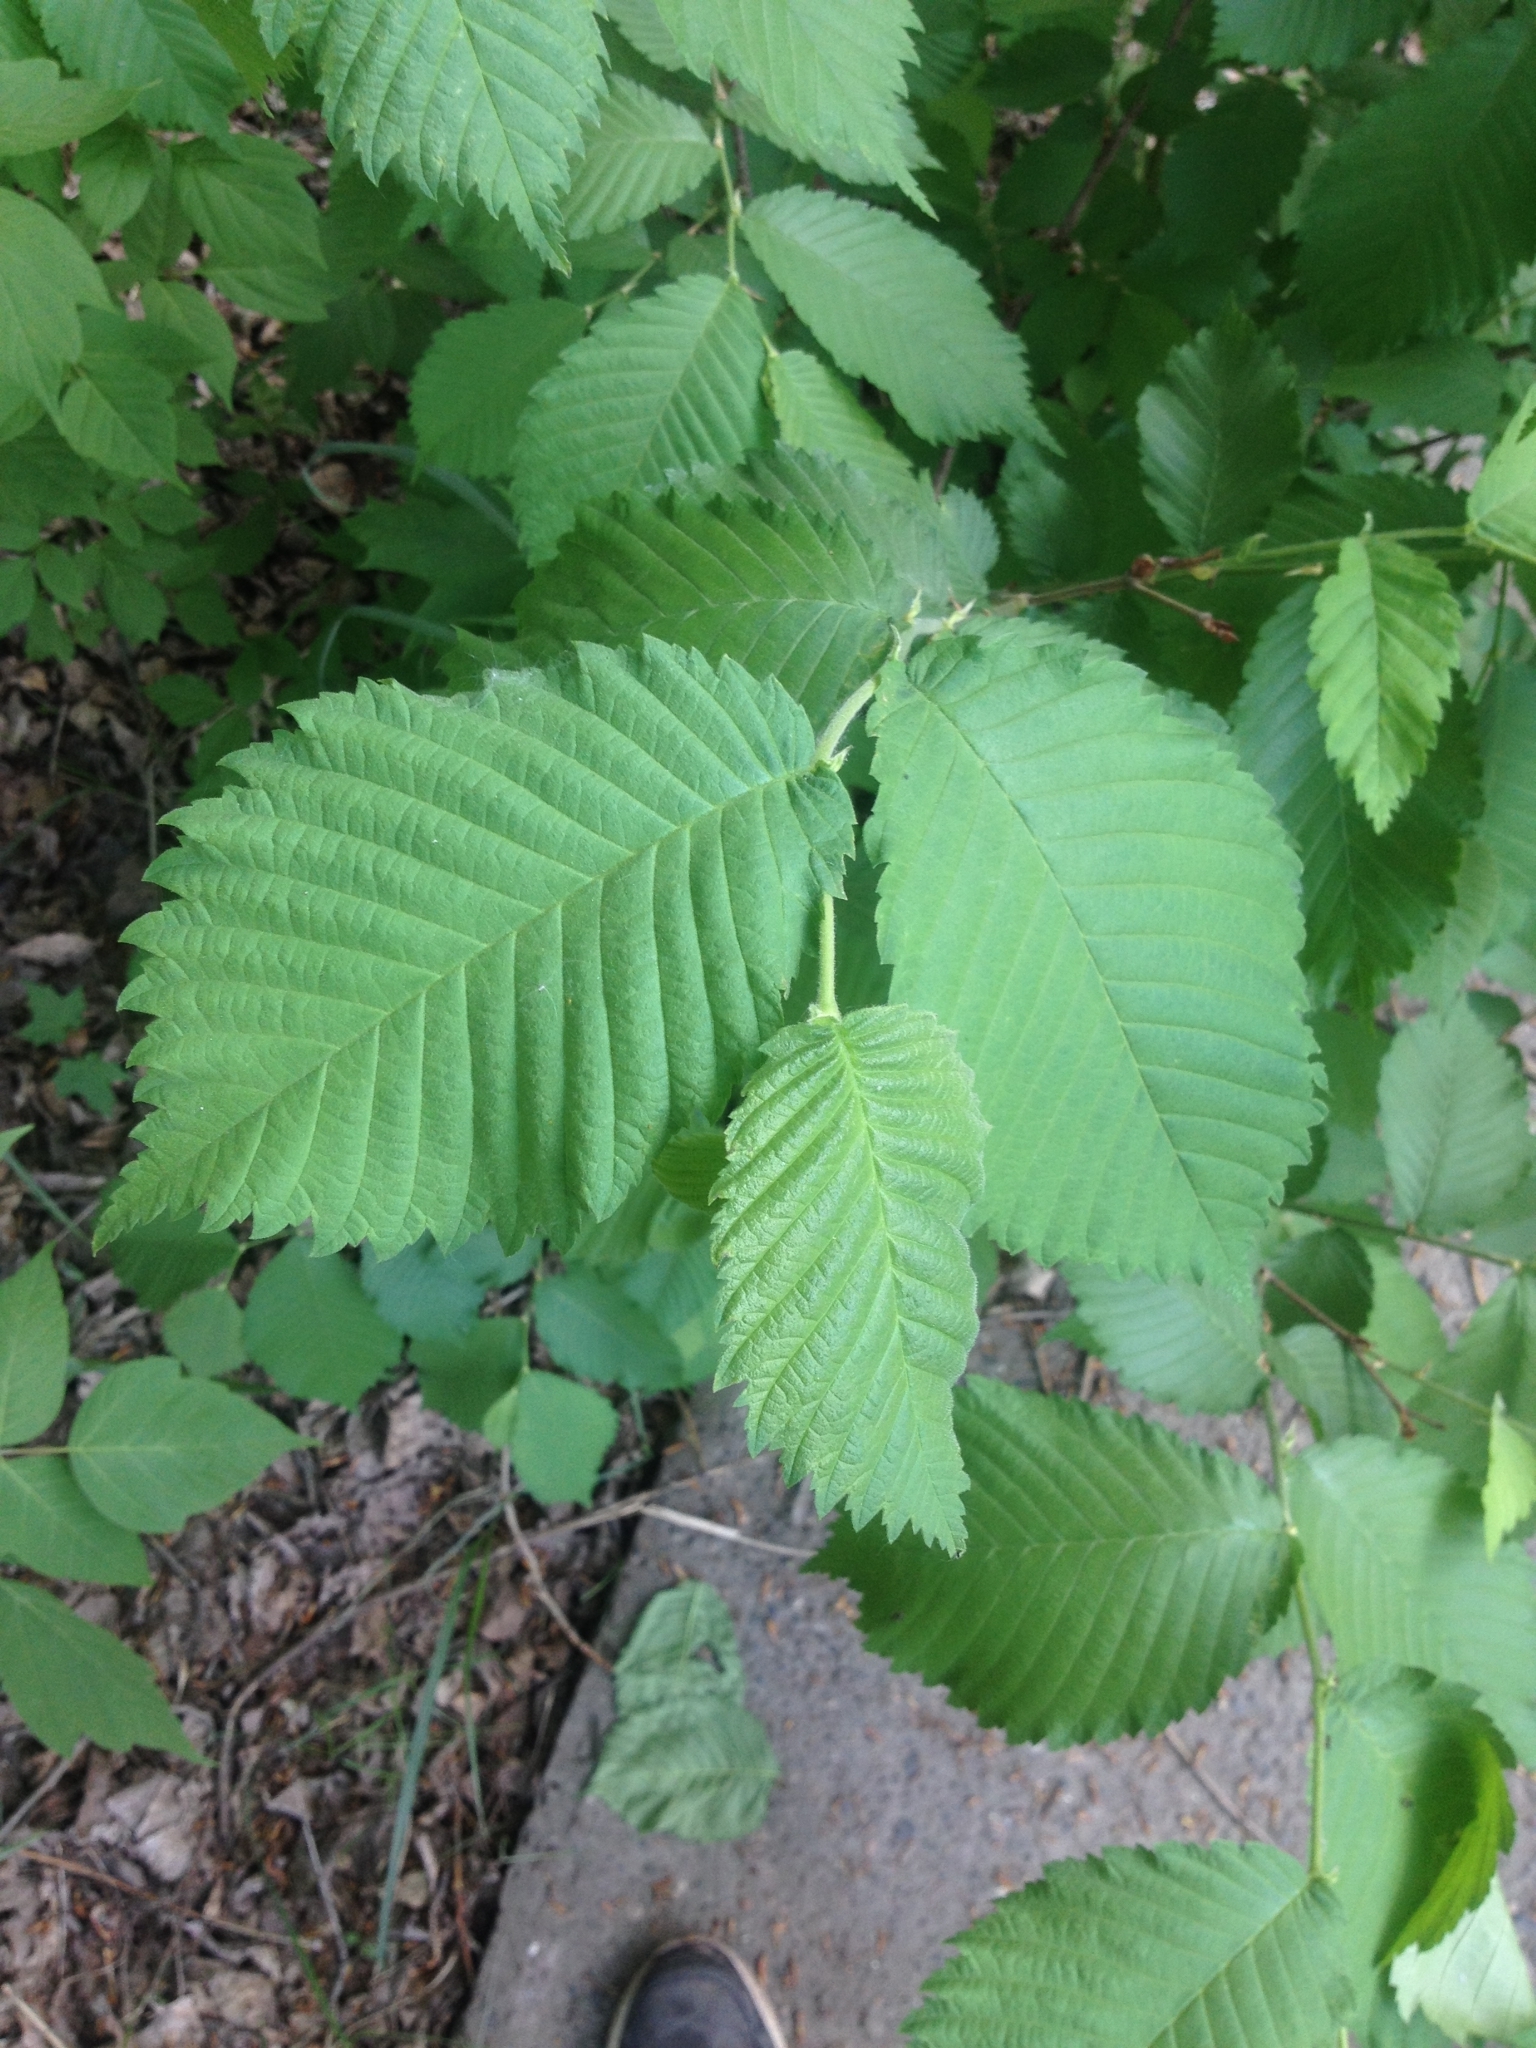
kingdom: Plantae
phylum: Tracheophyta
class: Magnoliopsida
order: Rosales
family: Ulmaceae
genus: Ulmus
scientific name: Ulmus laevis
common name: European white-elm
